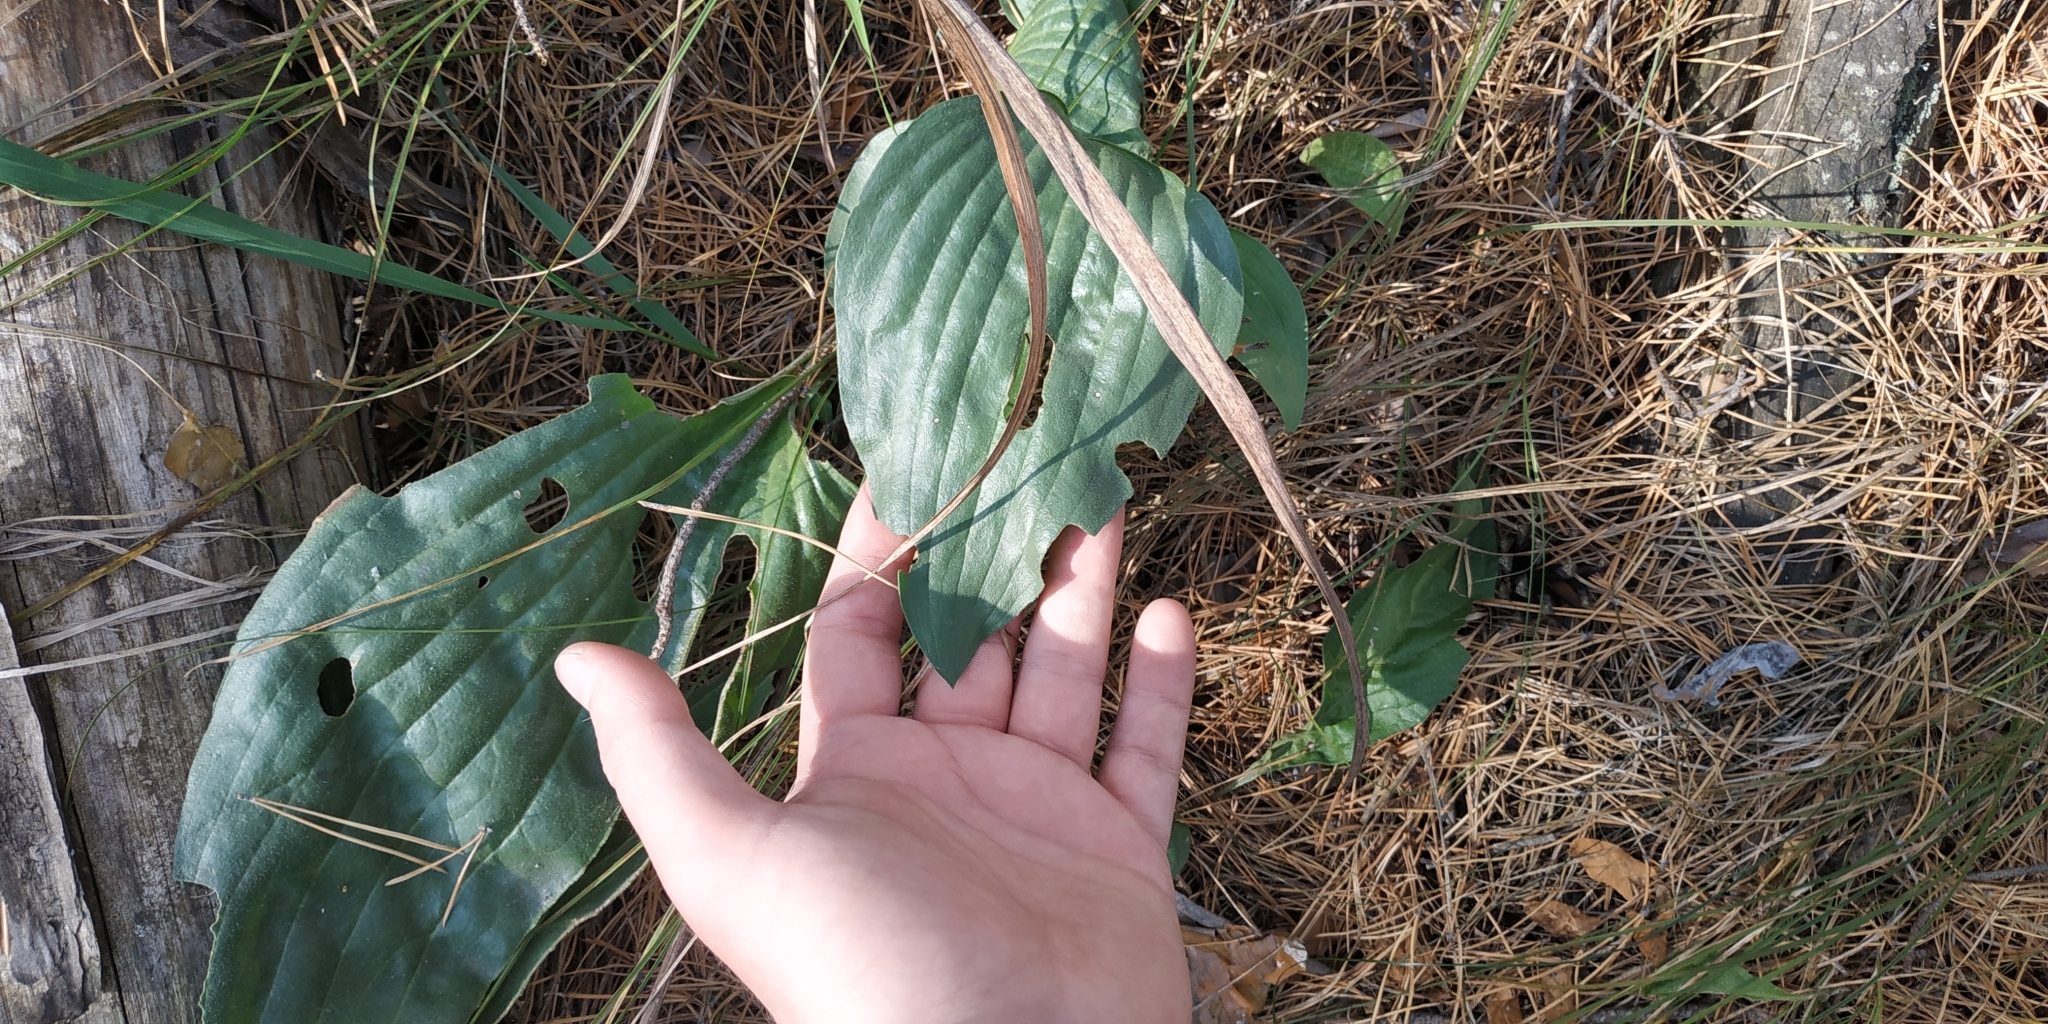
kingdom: Plantae
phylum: Tracheophyta
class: Magnoliopsida
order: Lamiales
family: Plantaginaceae
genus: Plantago
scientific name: Plantago maxima
